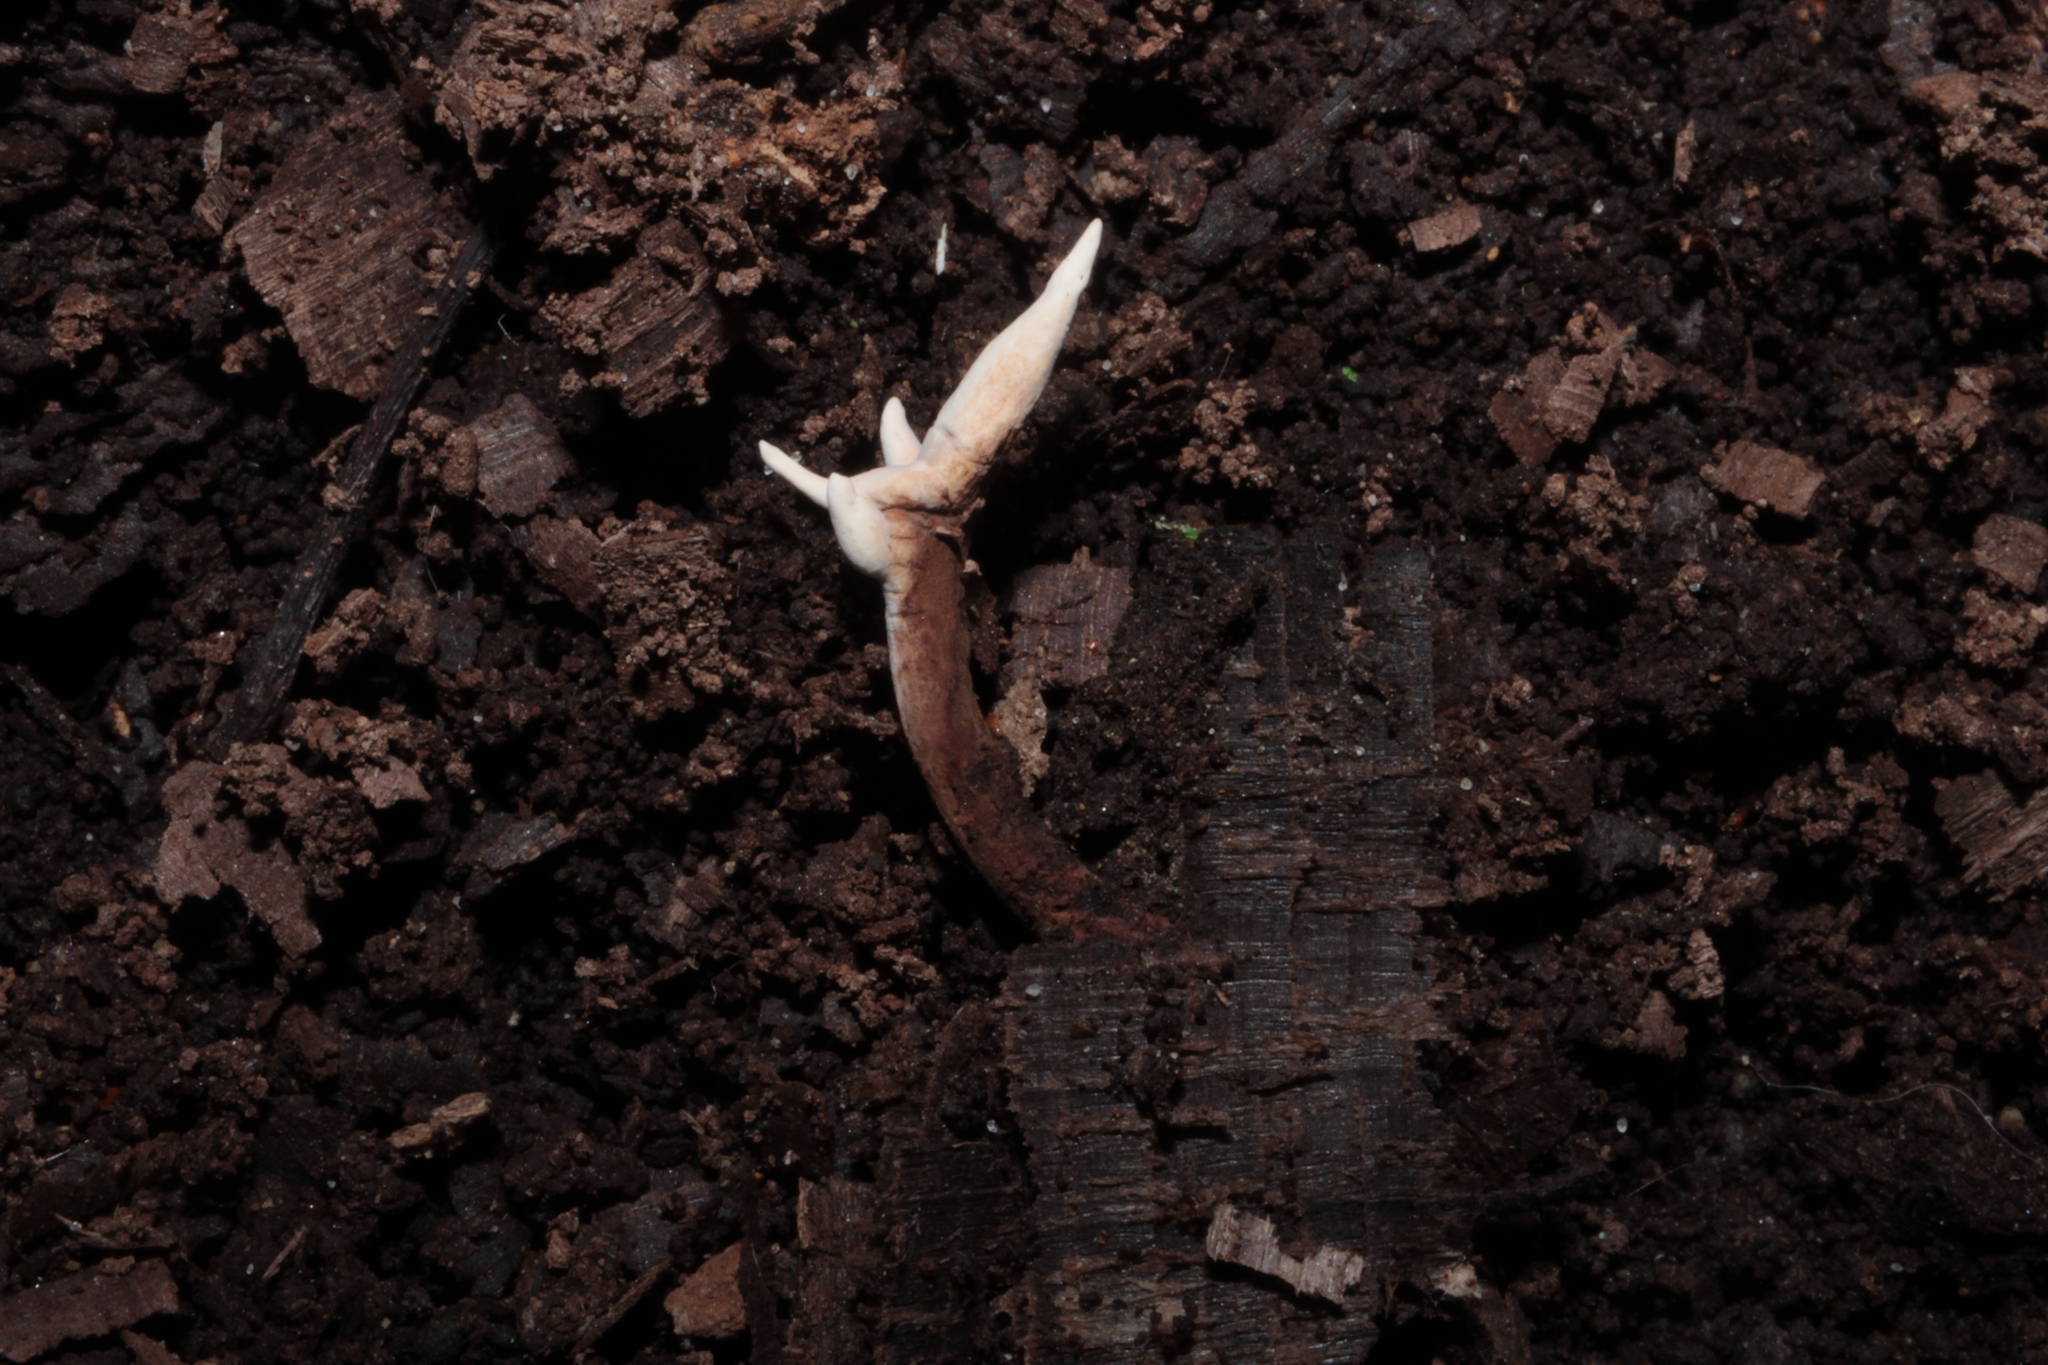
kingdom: Fungi
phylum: Ascomycota
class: Sordariomycetes
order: Hypocreales
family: Ophiocordycipitaceae
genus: Ophiocordyceps
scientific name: Ophiocordyceps smithii
